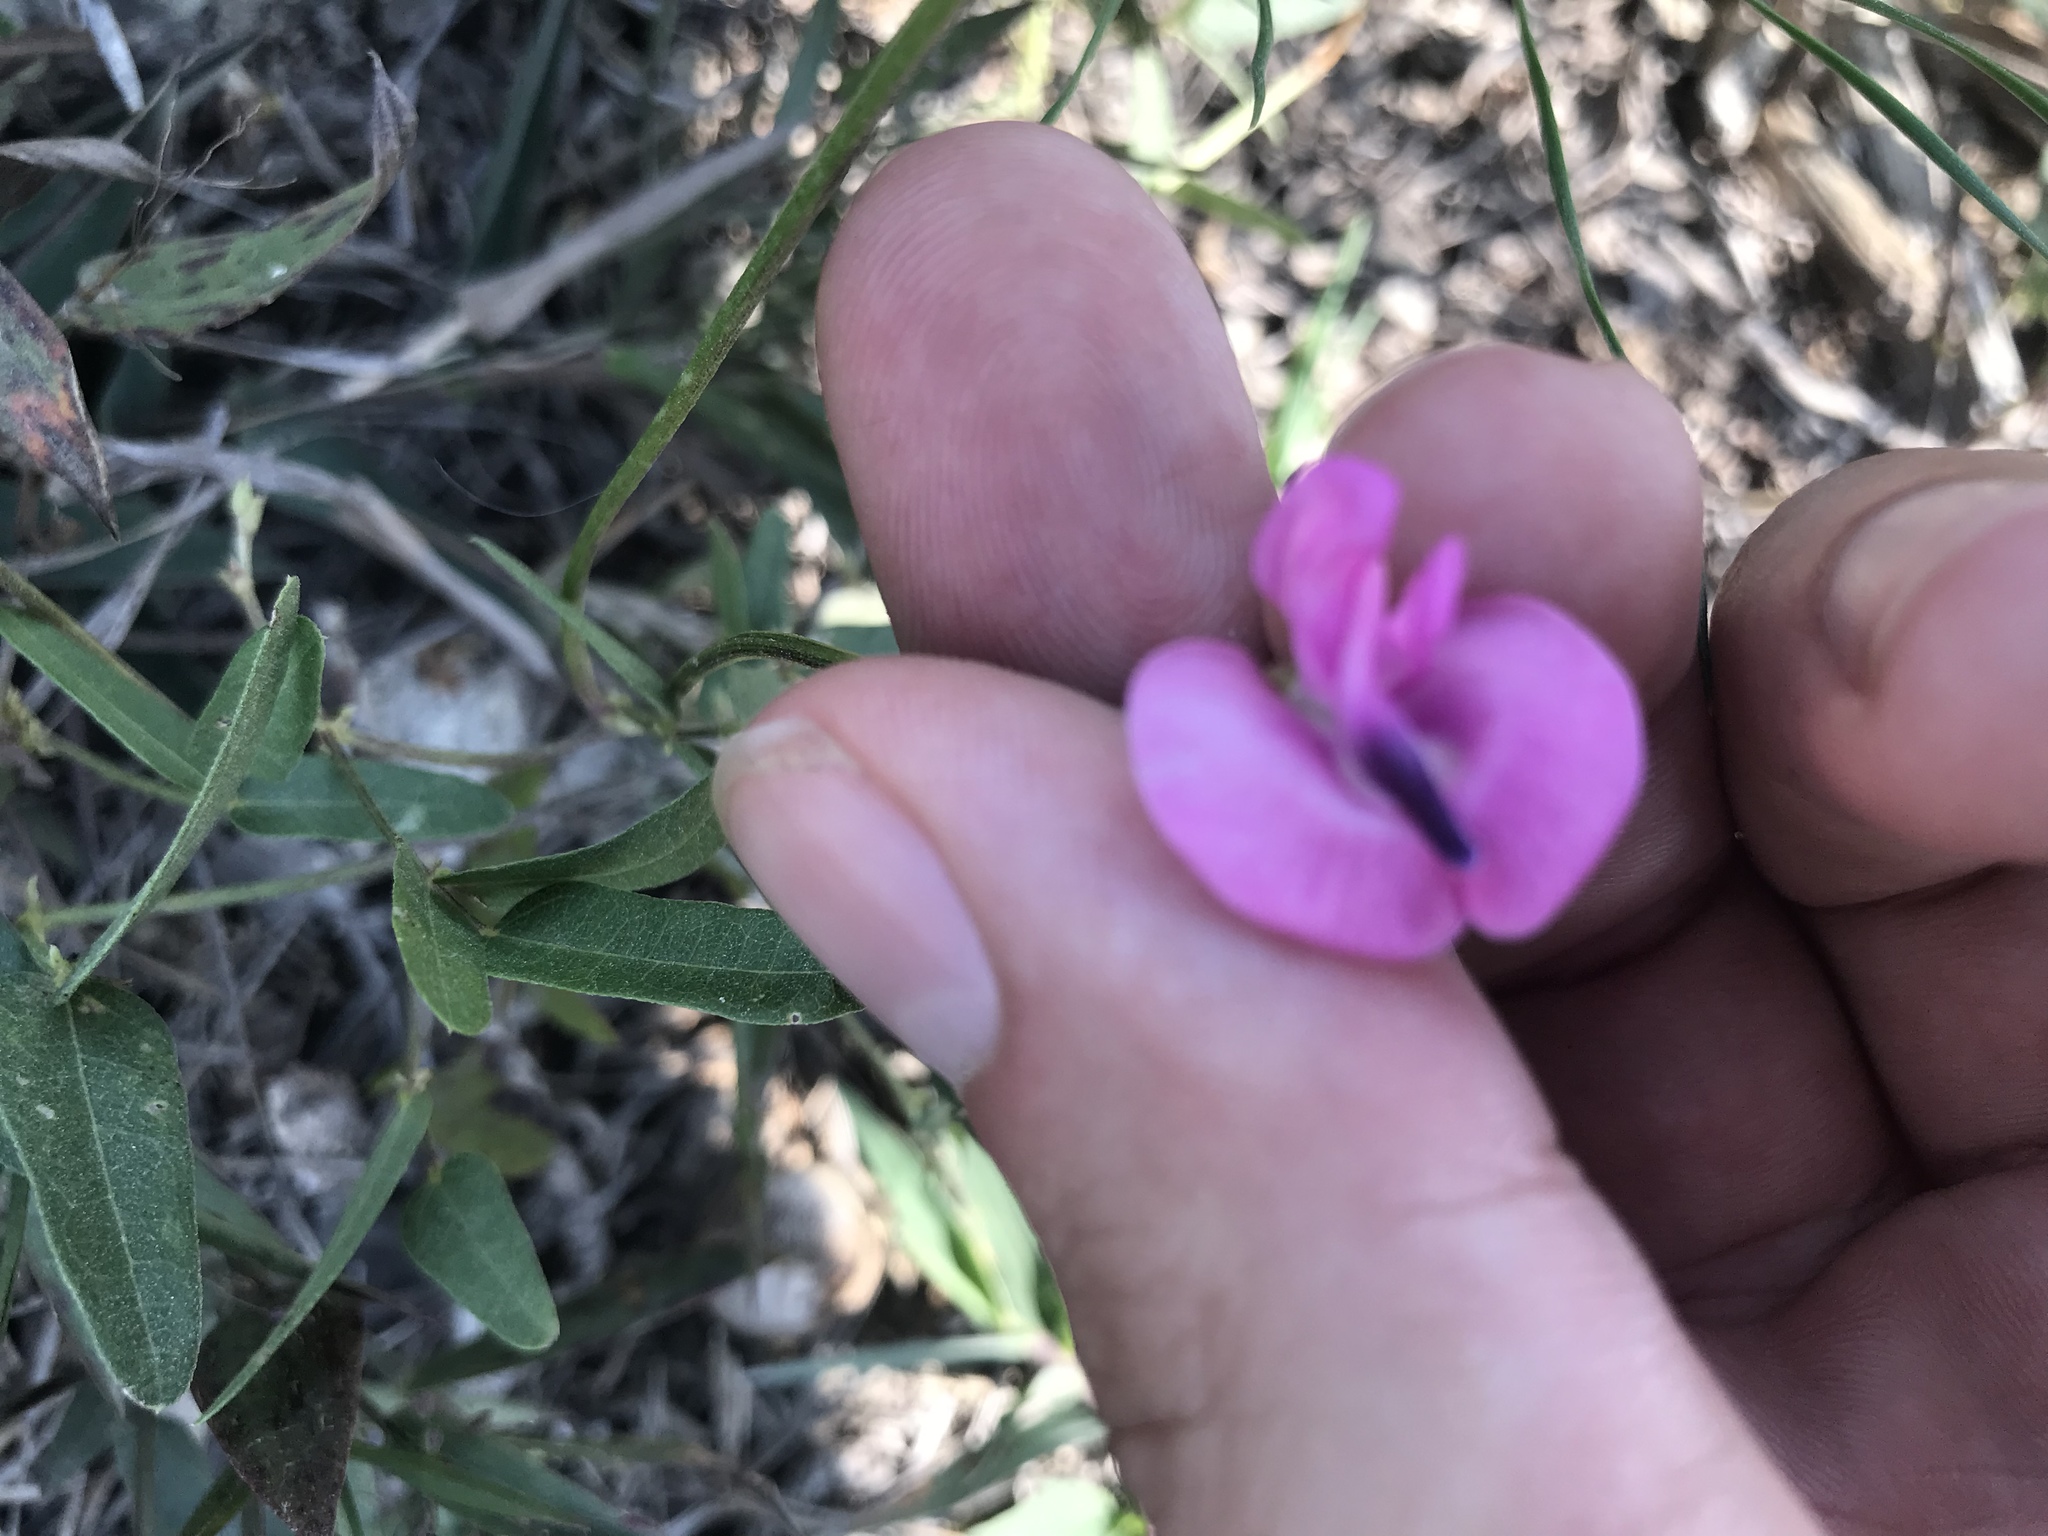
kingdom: Plantae
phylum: Tracheophyta
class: Magnoliopsida
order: Fabales
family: Fabaceae
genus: Strophostyles
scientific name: Strophostyles umbellata
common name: Perennial wild bean
